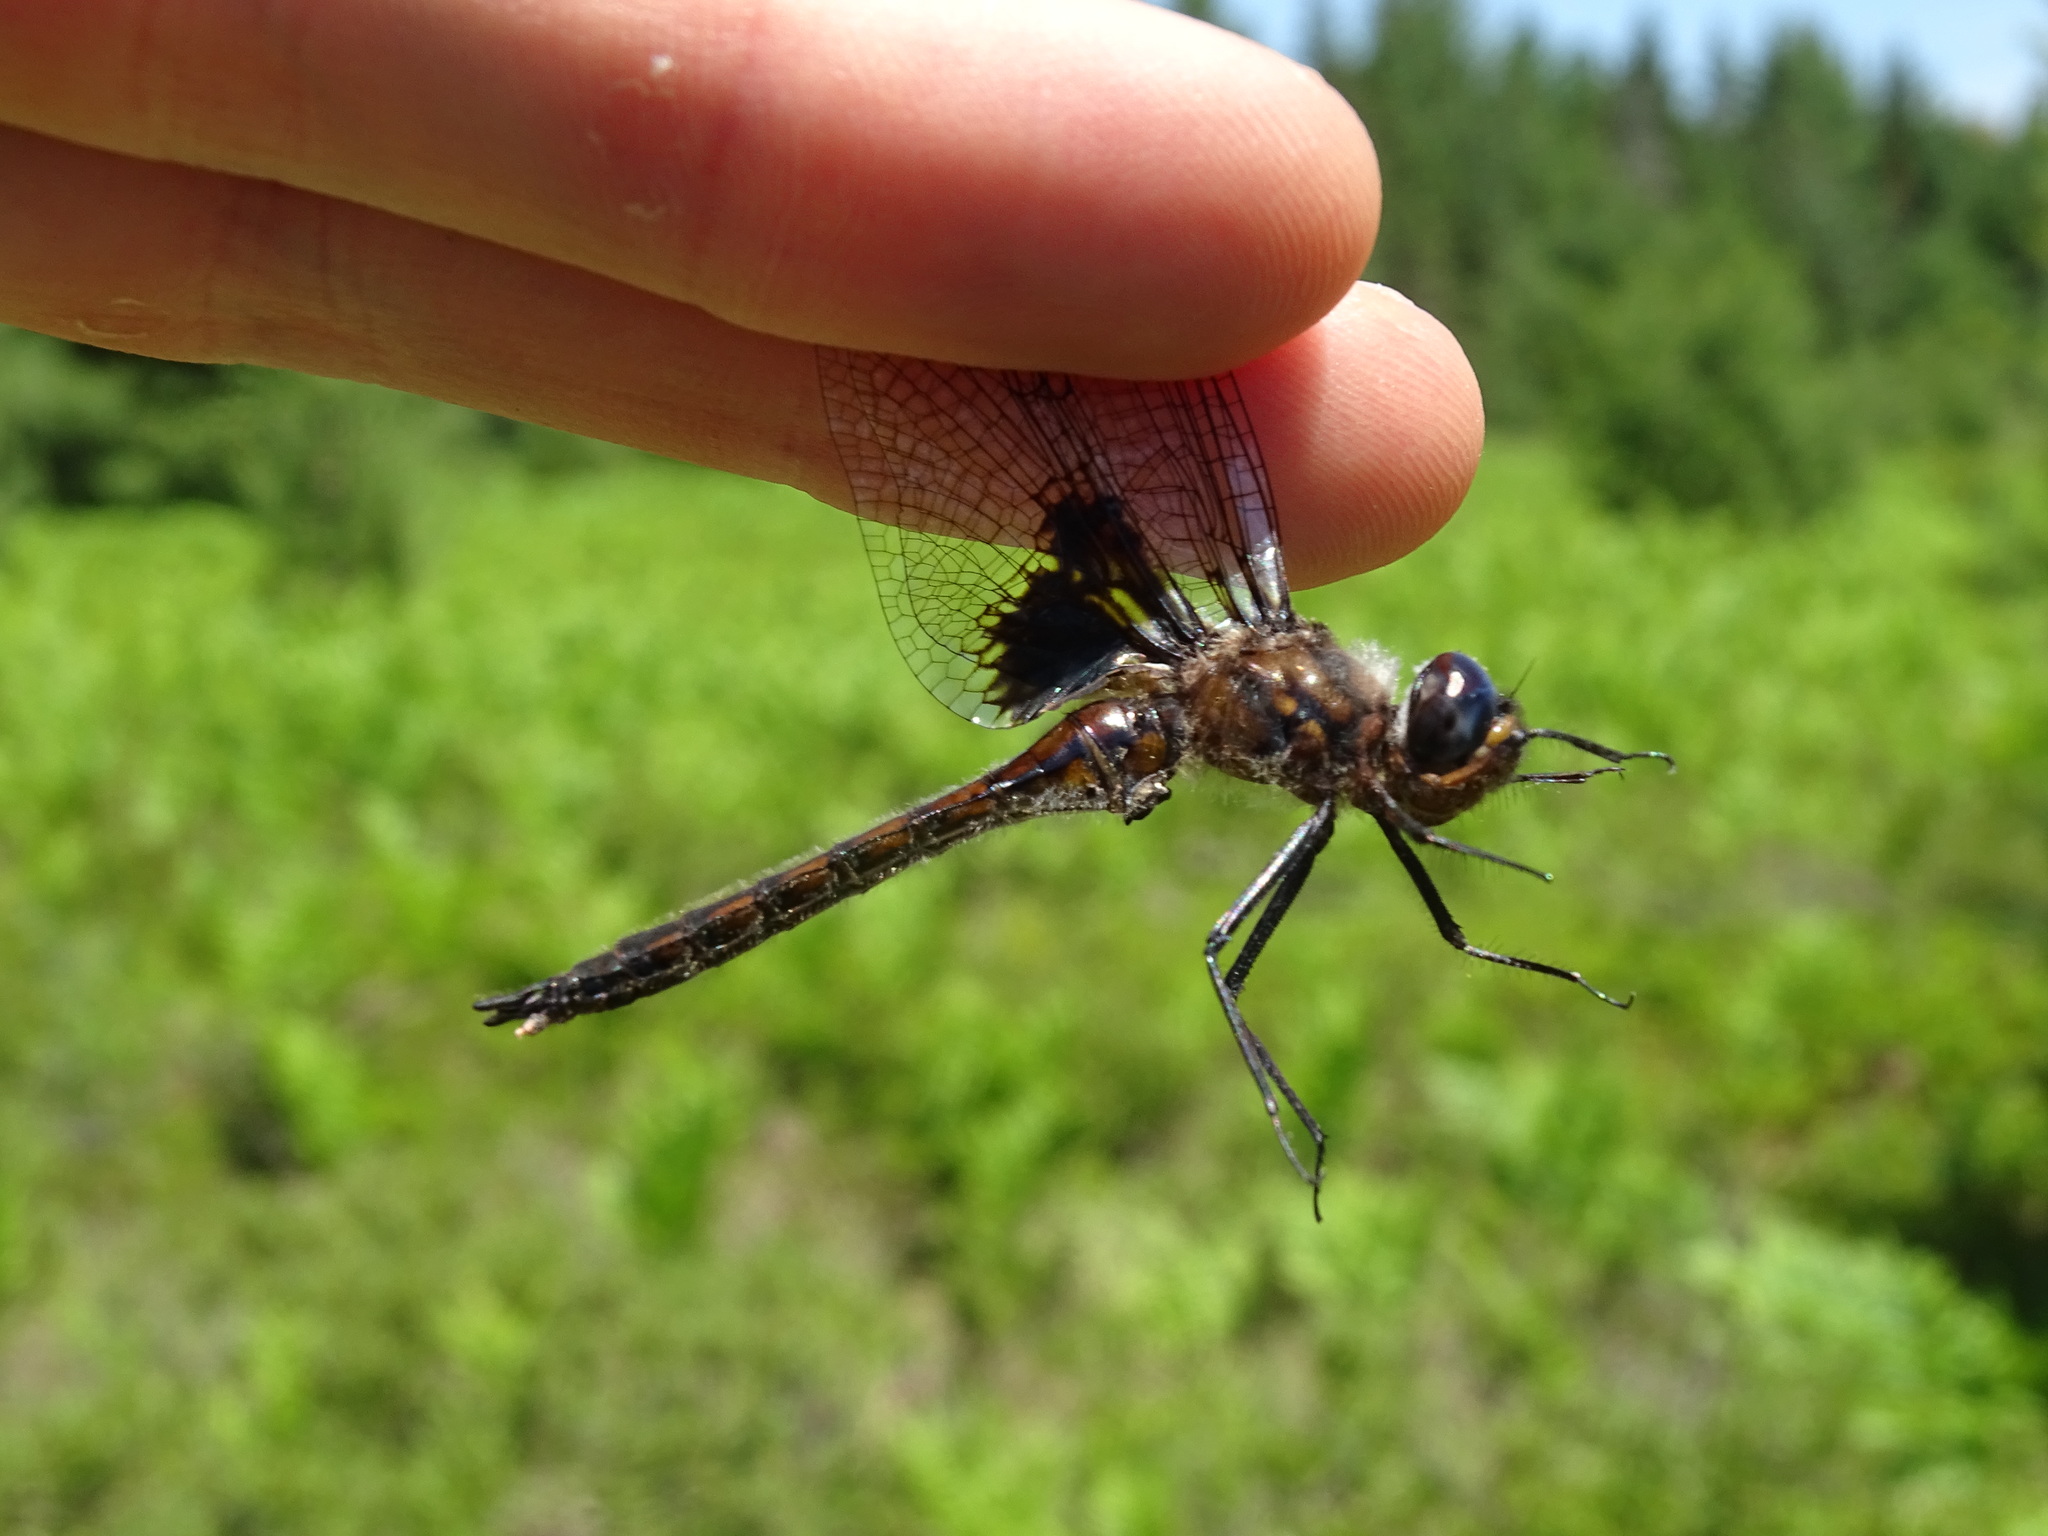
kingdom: Animalia
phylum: Arthropoda
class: Insecta
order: Odonata
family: Corduliidae
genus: Epitheca
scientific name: Epitheca cynosura
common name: Common baskettail
